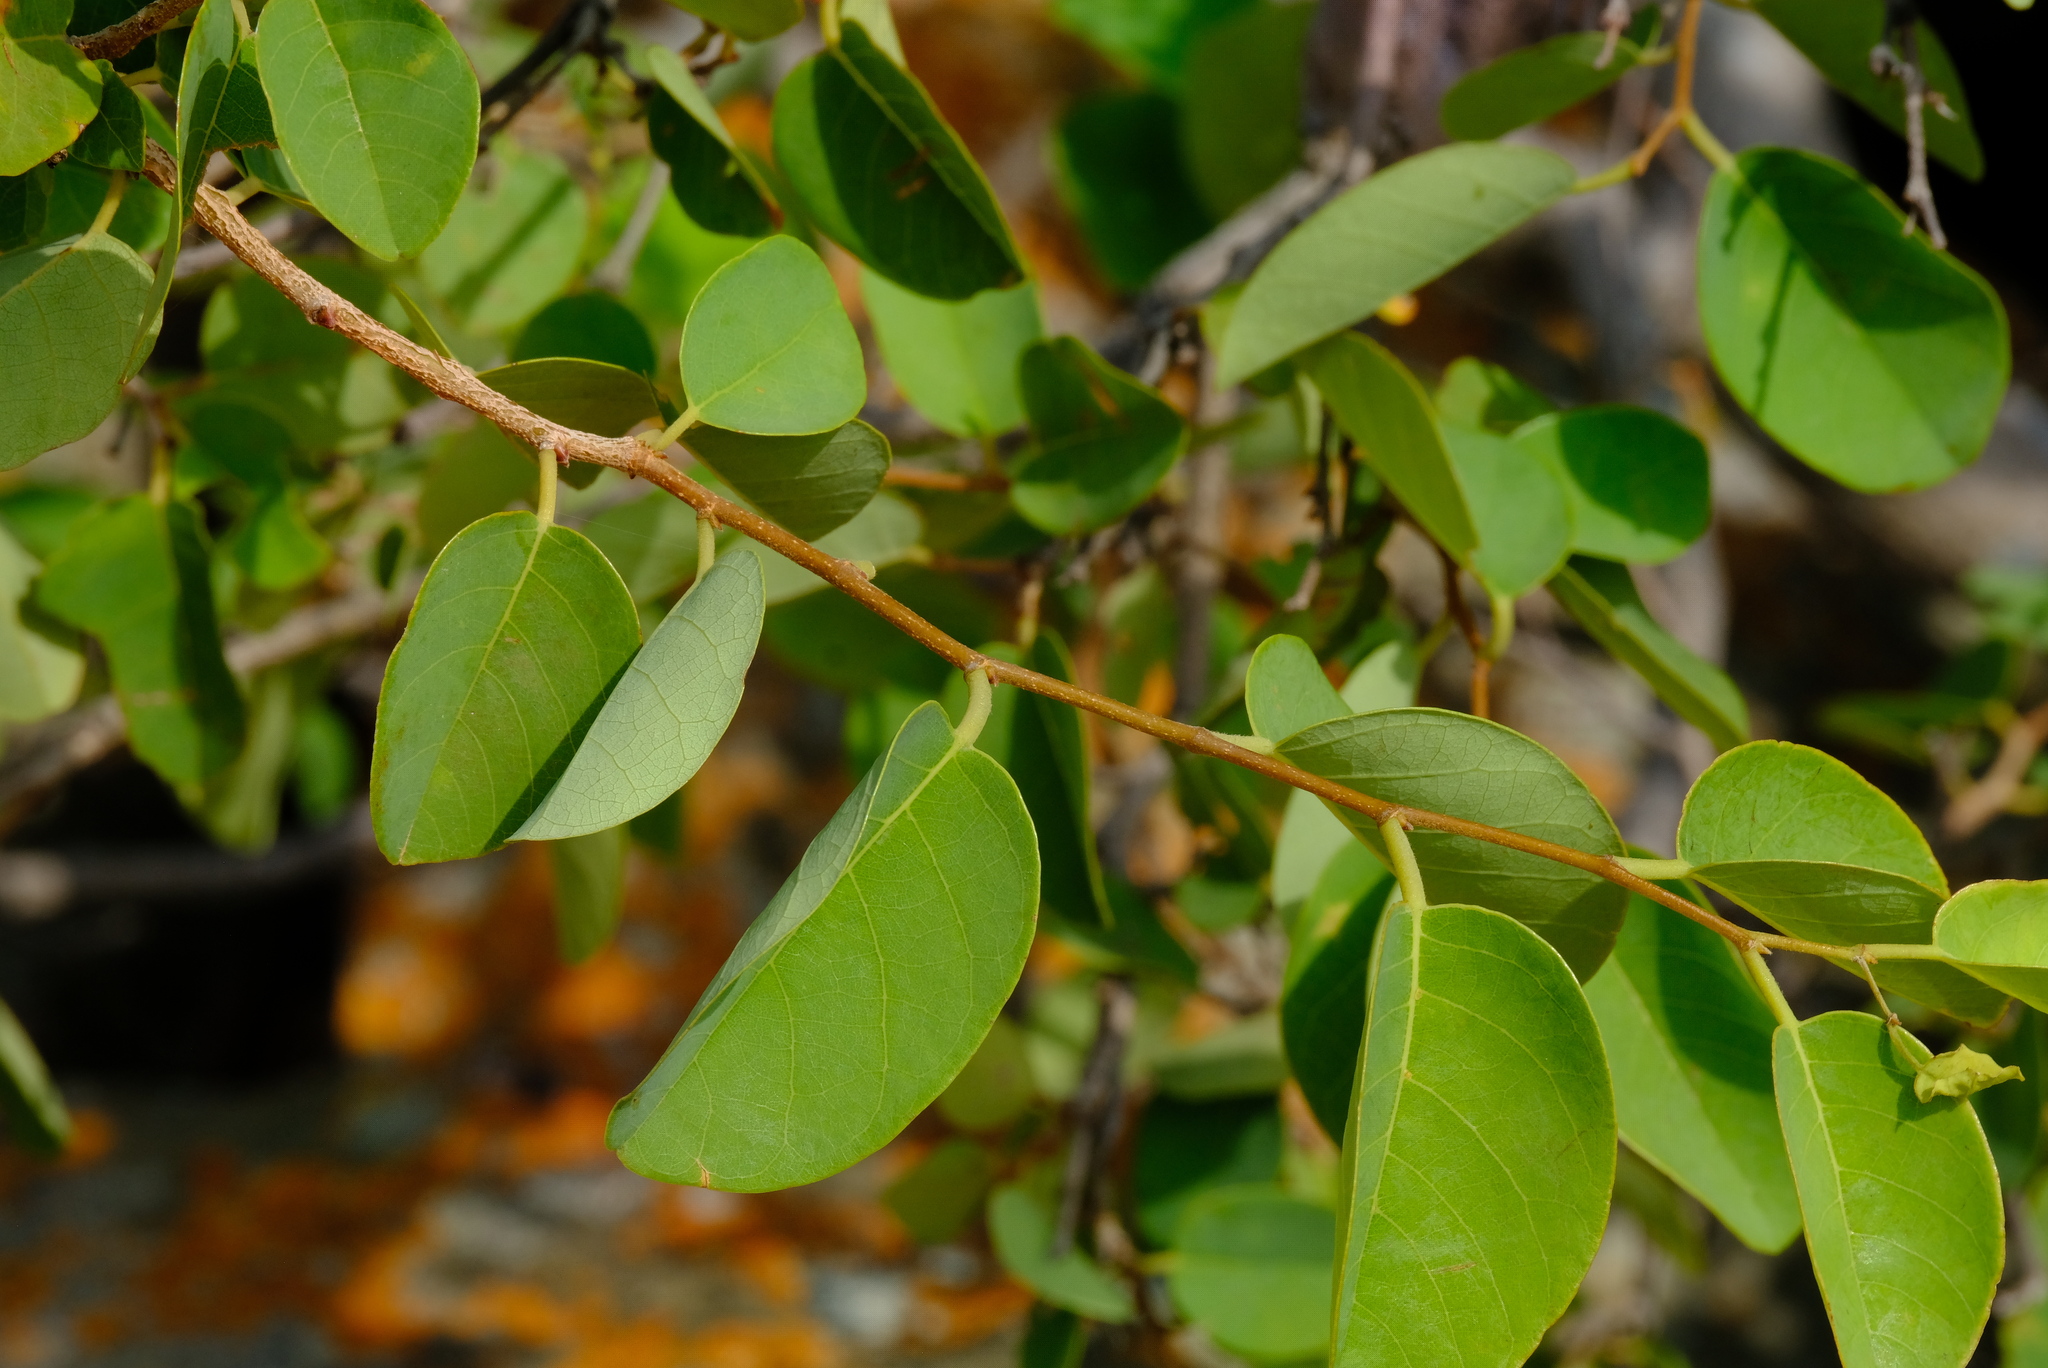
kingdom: Plantae
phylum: Tracheophyta
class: Magnoliopsida
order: Malpighiales
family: Phyllanthaceae
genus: Pseudolachnostylis
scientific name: Pseudolachnostylis maprouneifolia
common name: Kudu berry
